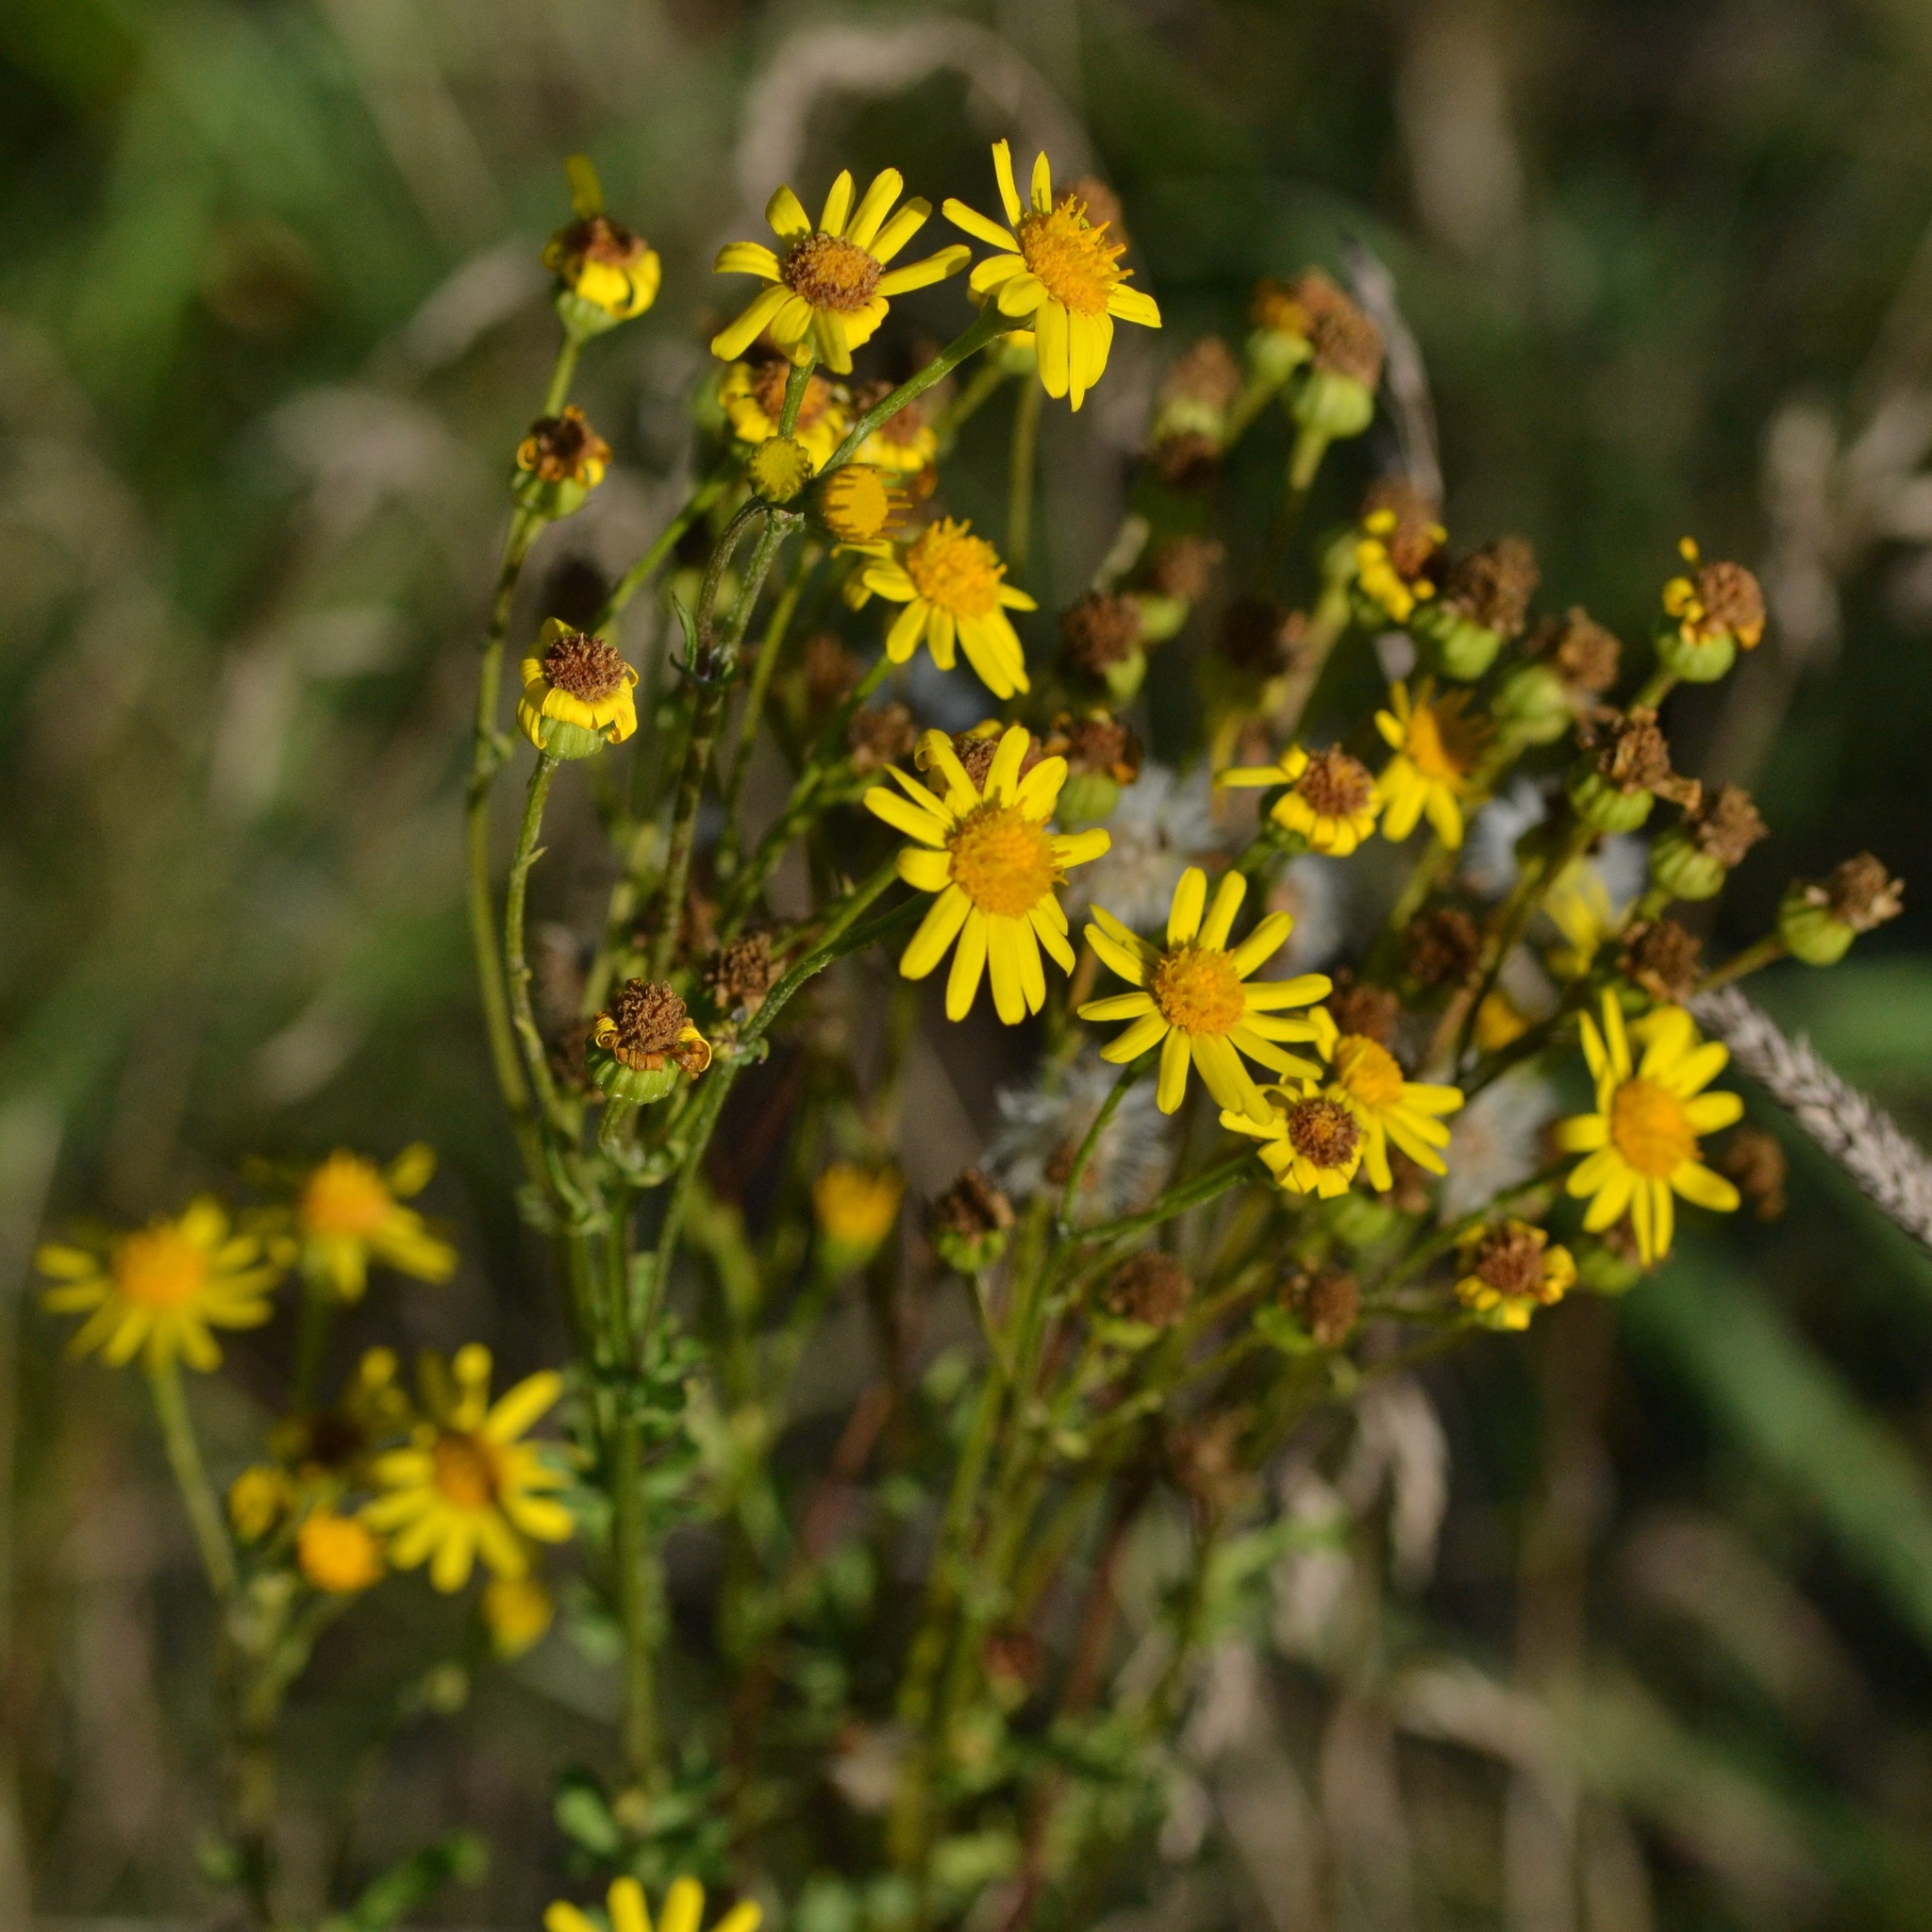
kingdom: Plantae
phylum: Tracheophyta
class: Magnoliopsida
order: Asterales
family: Asteraceae
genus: Jacobaea
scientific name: Jacobaea vulgaris
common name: Stinking willie
